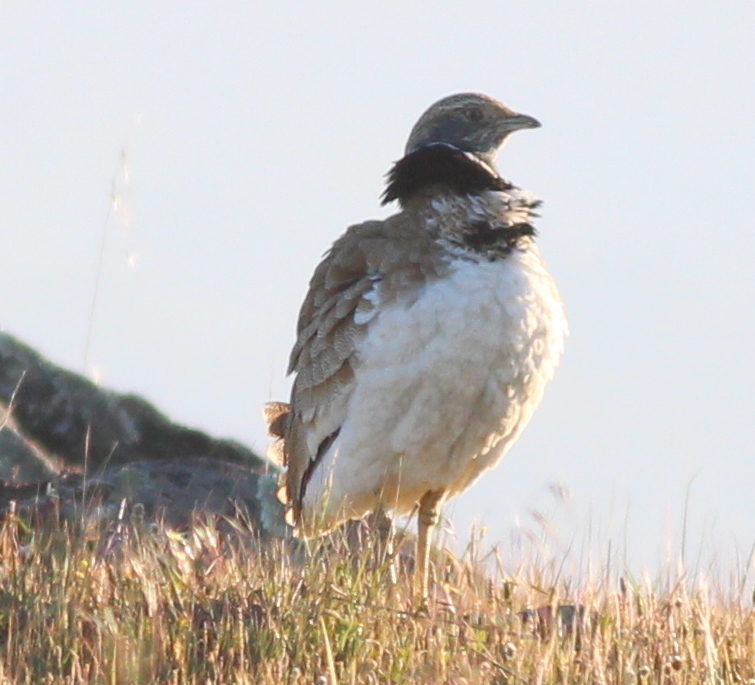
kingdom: Animalia
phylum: Chordata
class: Aves
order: Otidiformes
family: Otididae
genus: Tetrax
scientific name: Tetrax tetrax
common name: Little bustard
